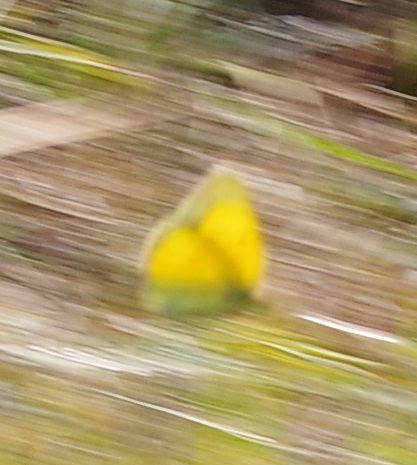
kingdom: Animalia
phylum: Arthropoda
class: Insecta
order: Lepidoptera
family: Pieridae
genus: Colias
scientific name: Colias croceus
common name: Clouded yellow
